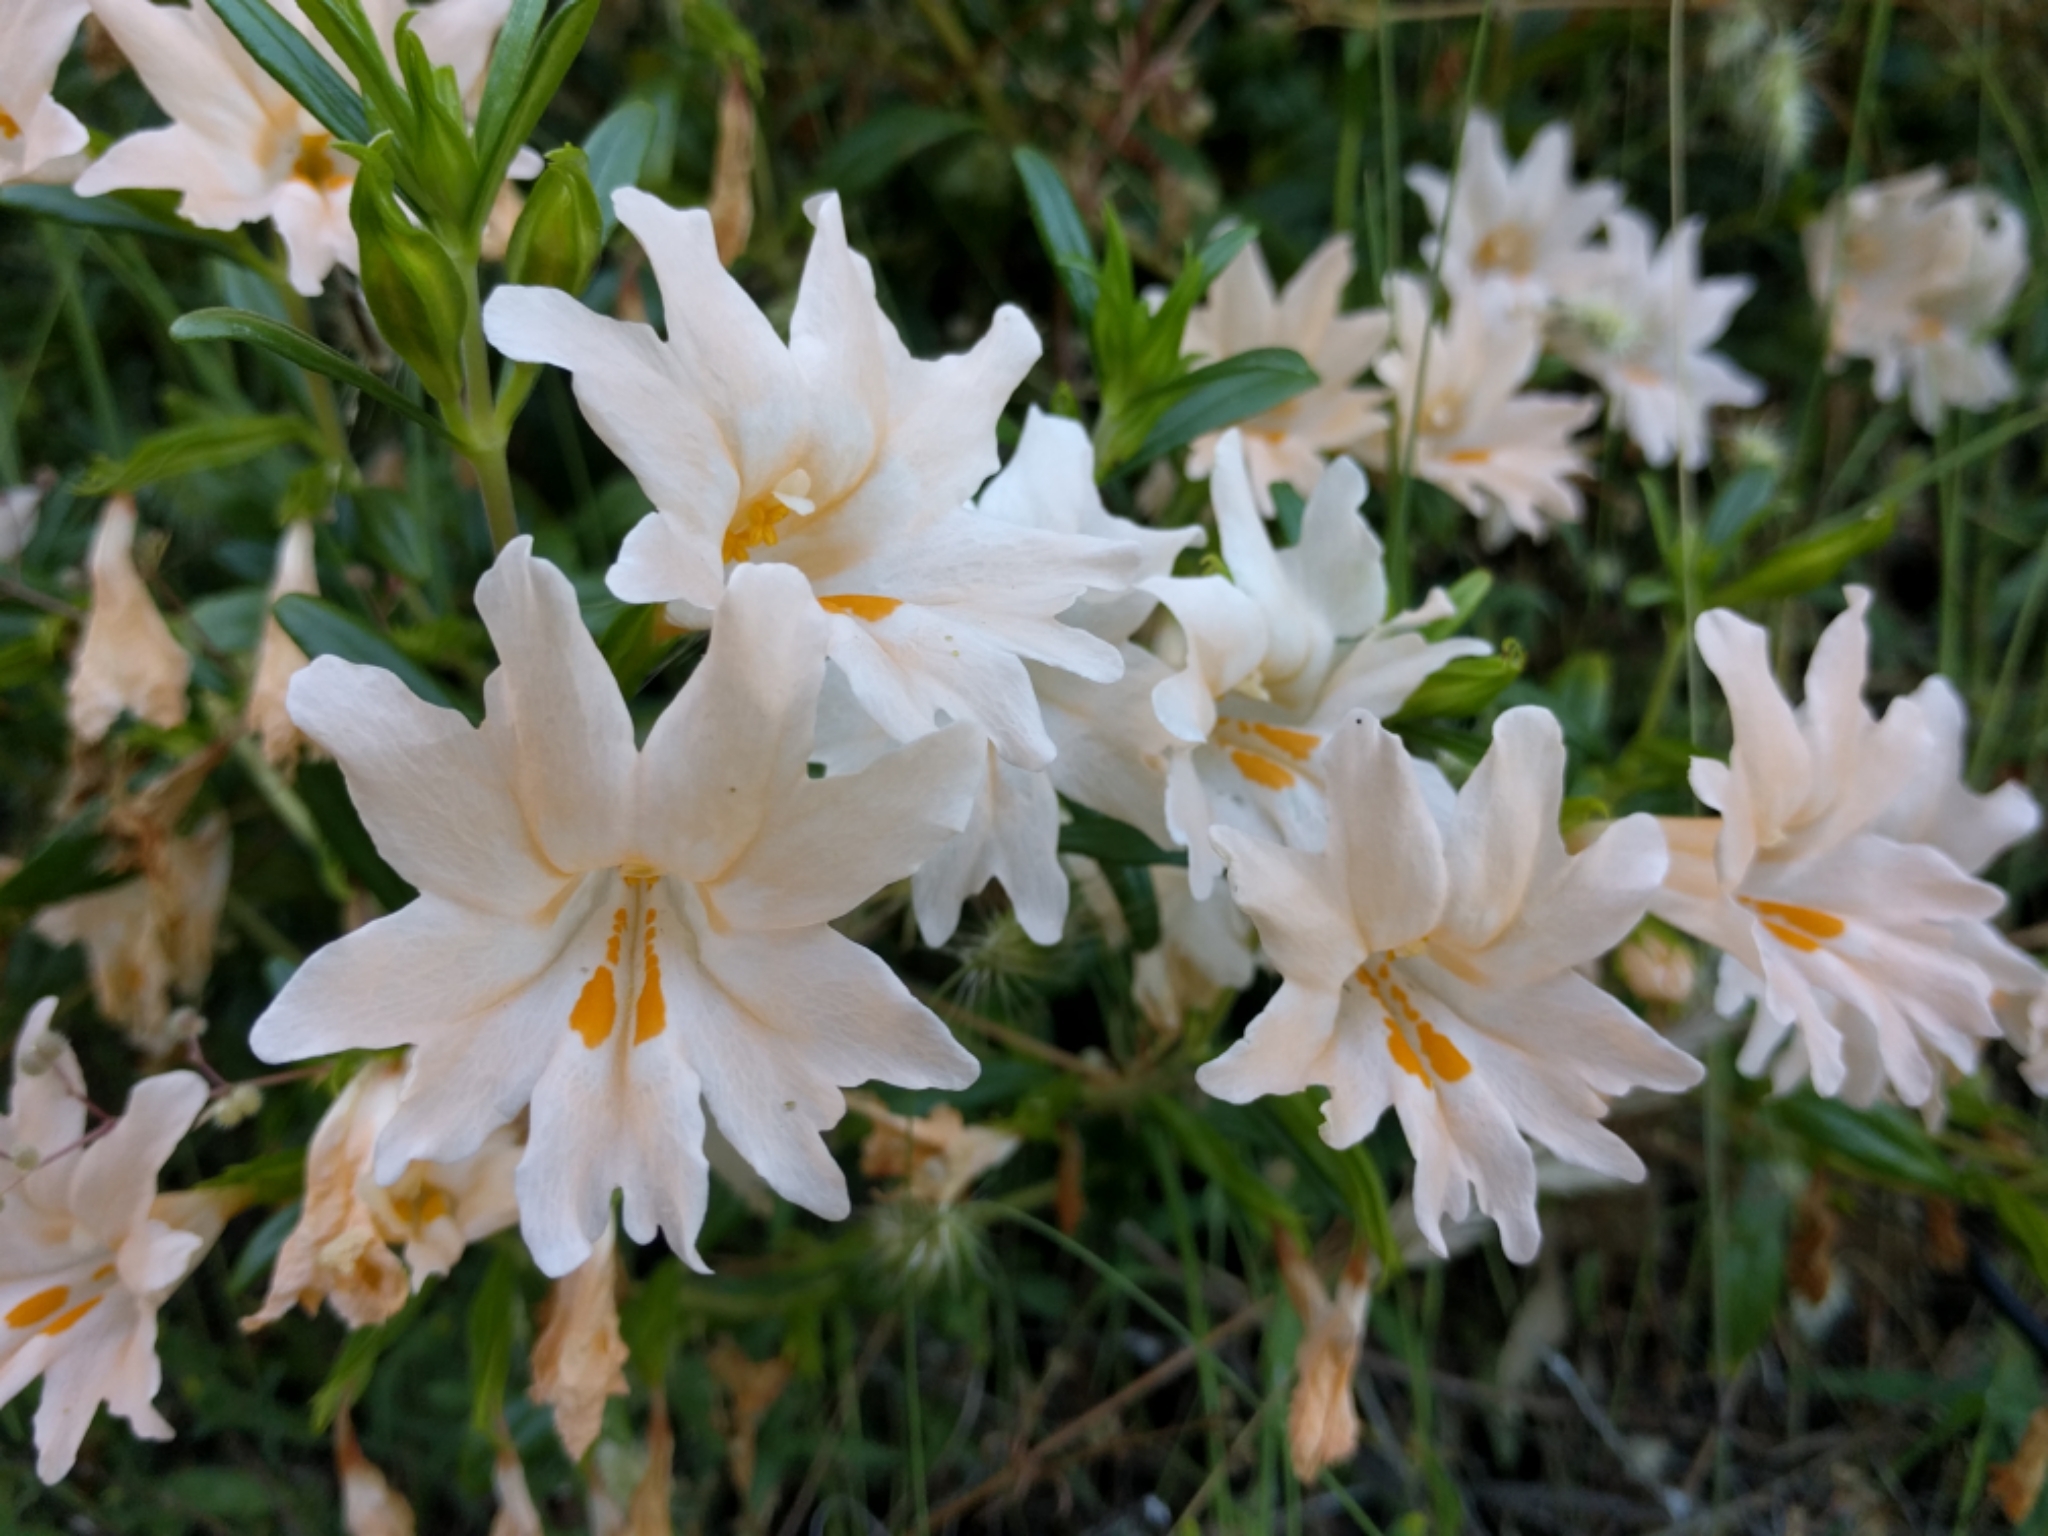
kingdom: Plantae
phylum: Tracheophyta
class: Magnoliopsida
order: Lamiales
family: Phrymaceae
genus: Diplacus
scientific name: Diplacus grandiflorus
